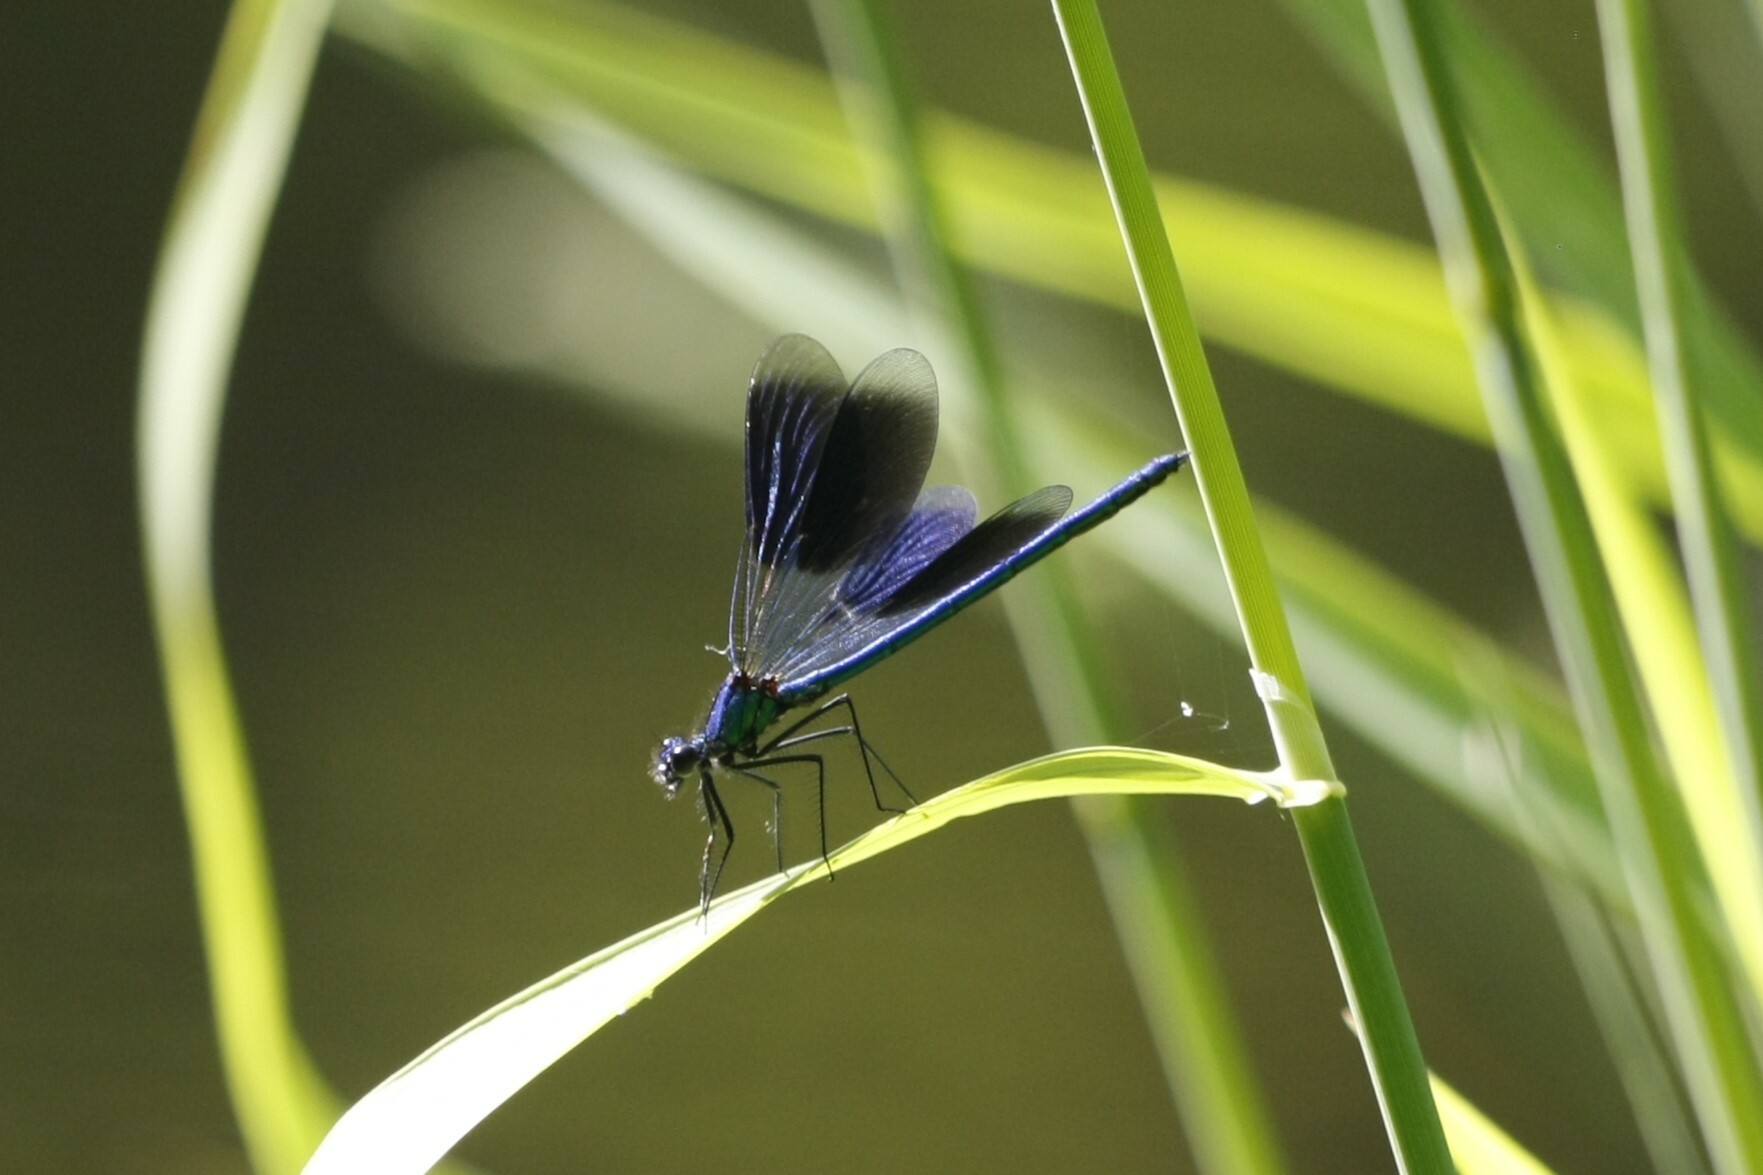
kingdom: Animalia
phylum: Arthropoda
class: Insecta
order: Odonata
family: Calopterygidae
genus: Calopteryx
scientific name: Calopteryx splendens
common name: Banded demoiselle
